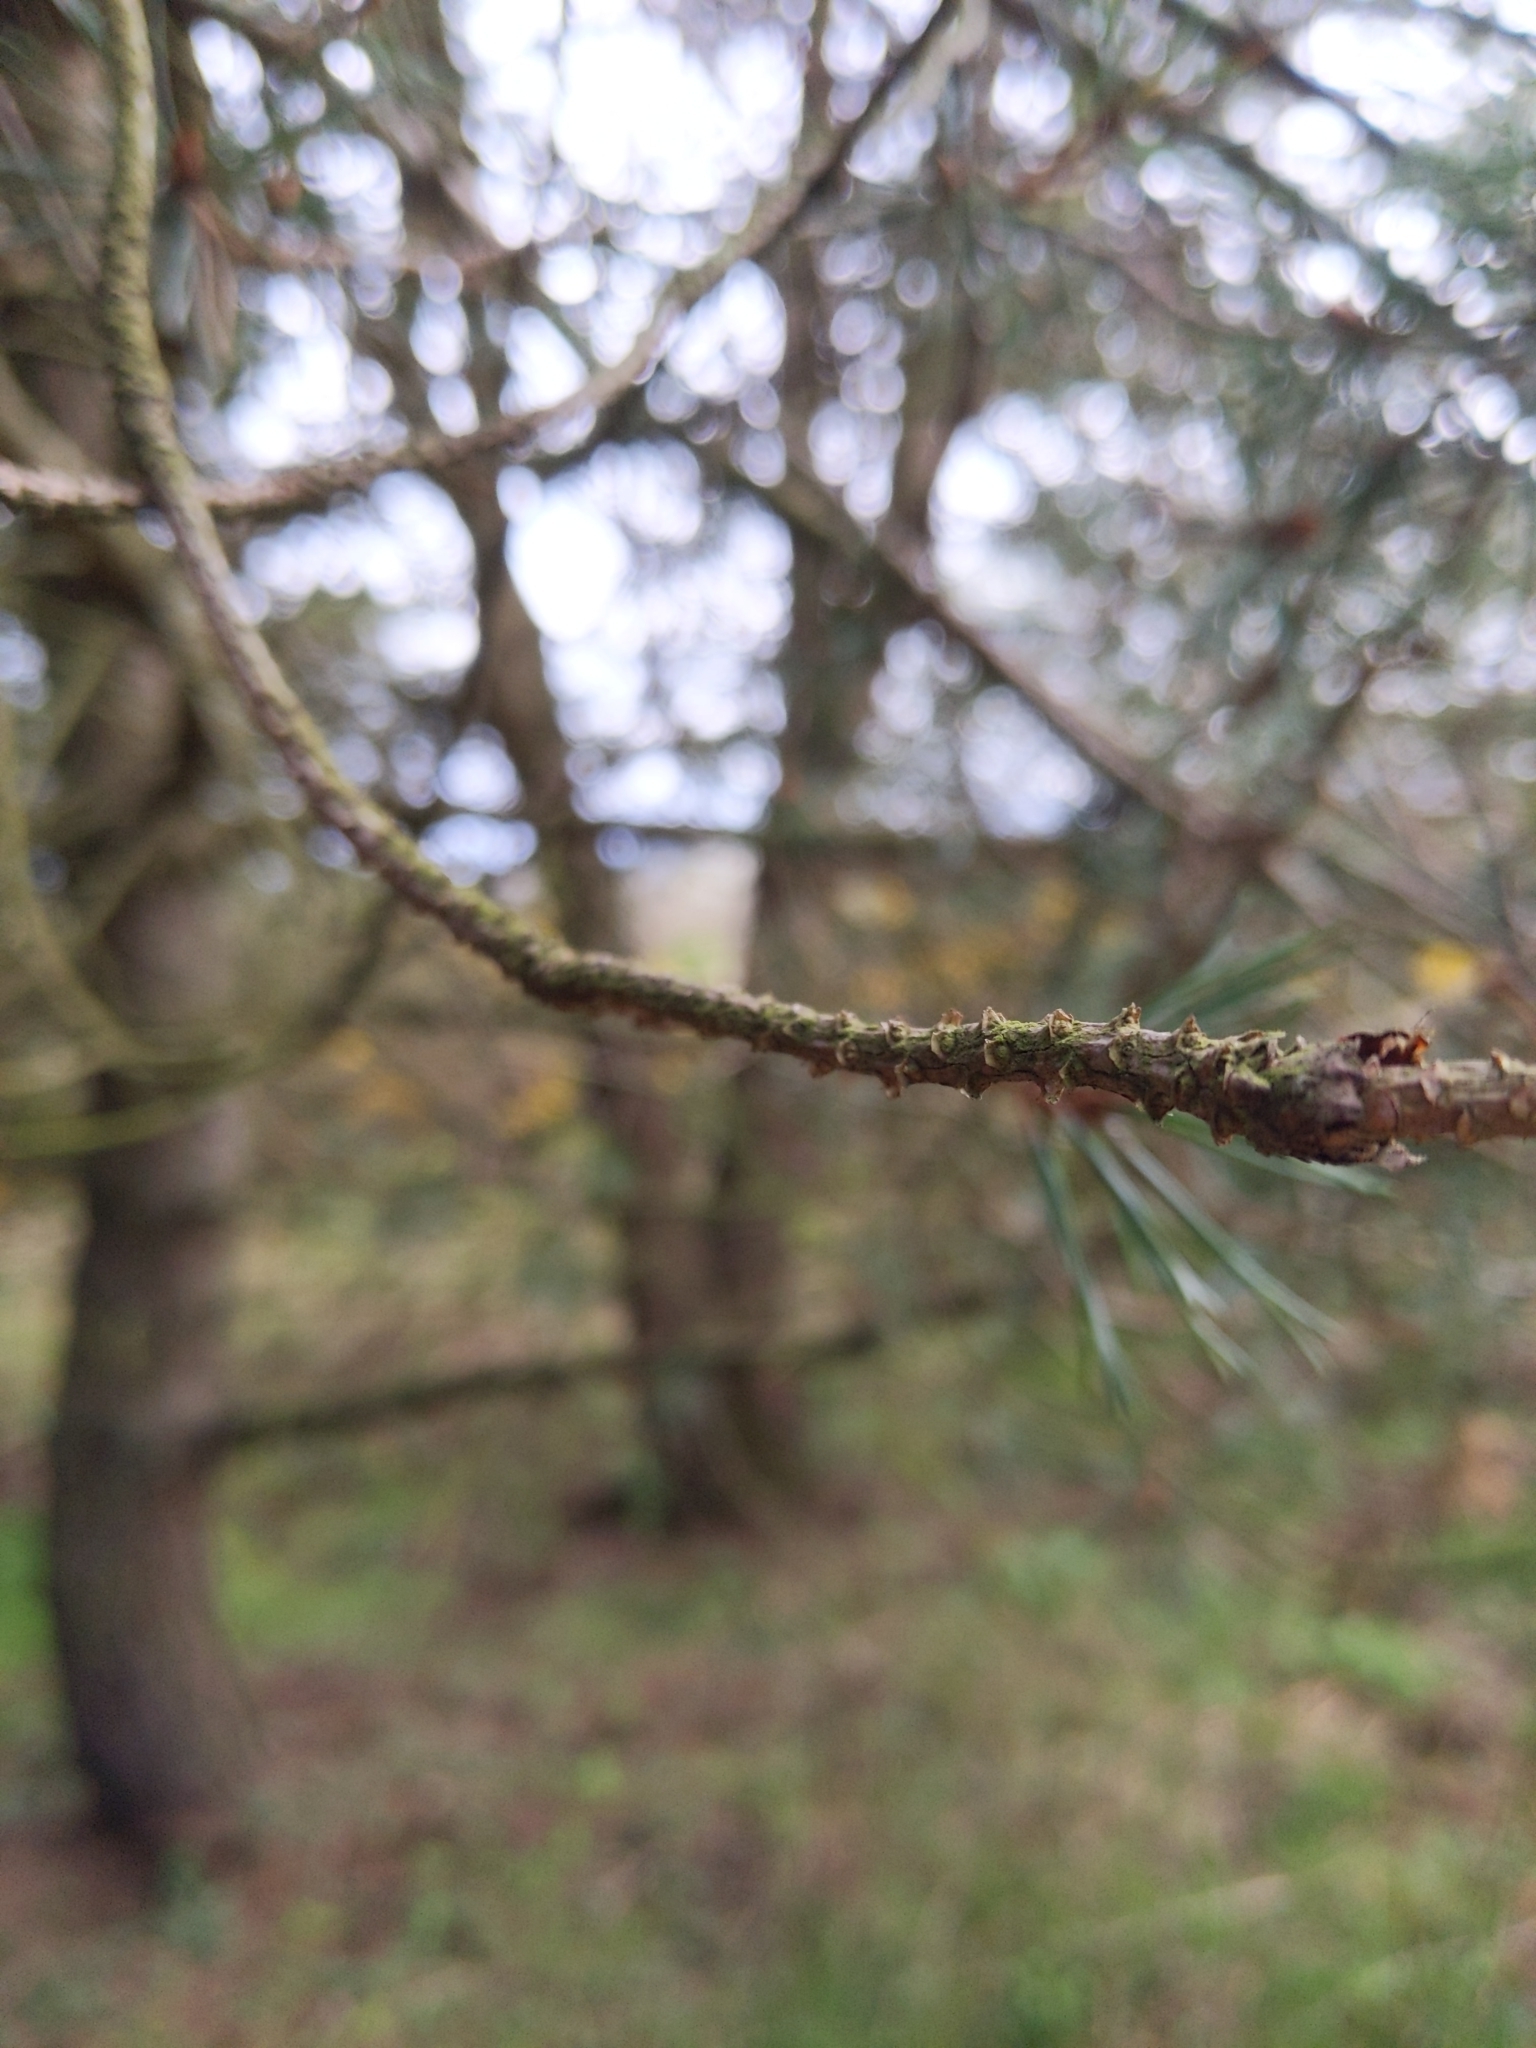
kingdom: Plantae
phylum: Tracheophyta
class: Pinopsida
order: Pinales
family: Pinaceae
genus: Pinus
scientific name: Pinus sylvestris
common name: Scots pine
